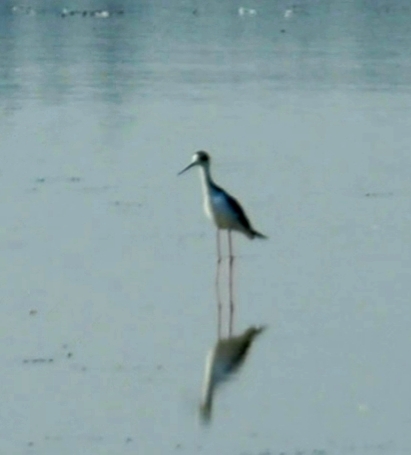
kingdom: Animalia
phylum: Chordata
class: Aves
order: Charadriiformes
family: Recurvirostridae
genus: Himantopus
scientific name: Himantopus mexicanus
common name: Black-necked stilt
